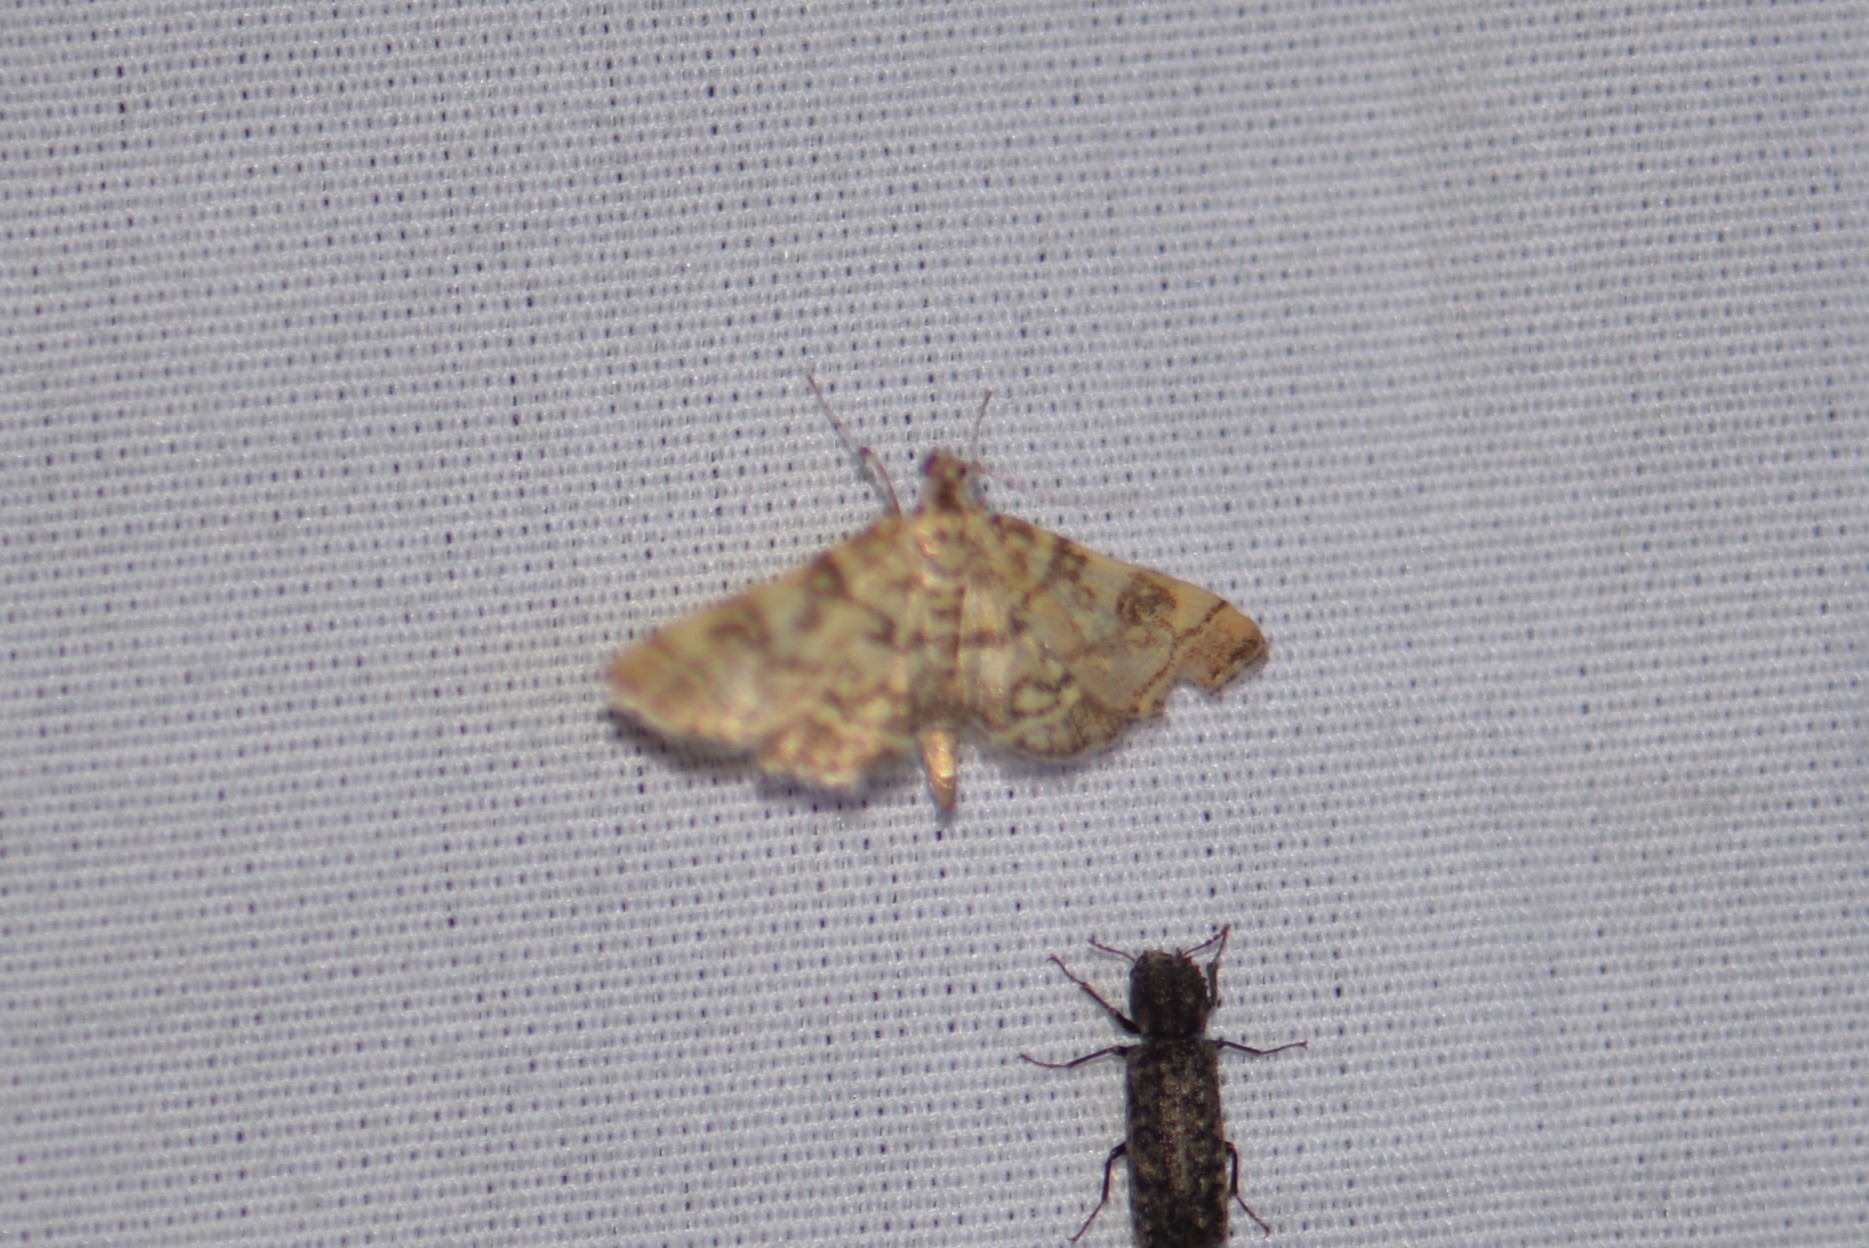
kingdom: Animalia
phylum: Arthropoda
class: Insecta
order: Lepidoptera
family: Crambidae
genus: Apogeshna
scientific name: Apogeshna stenialis
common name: Checkered apogeshna moth
